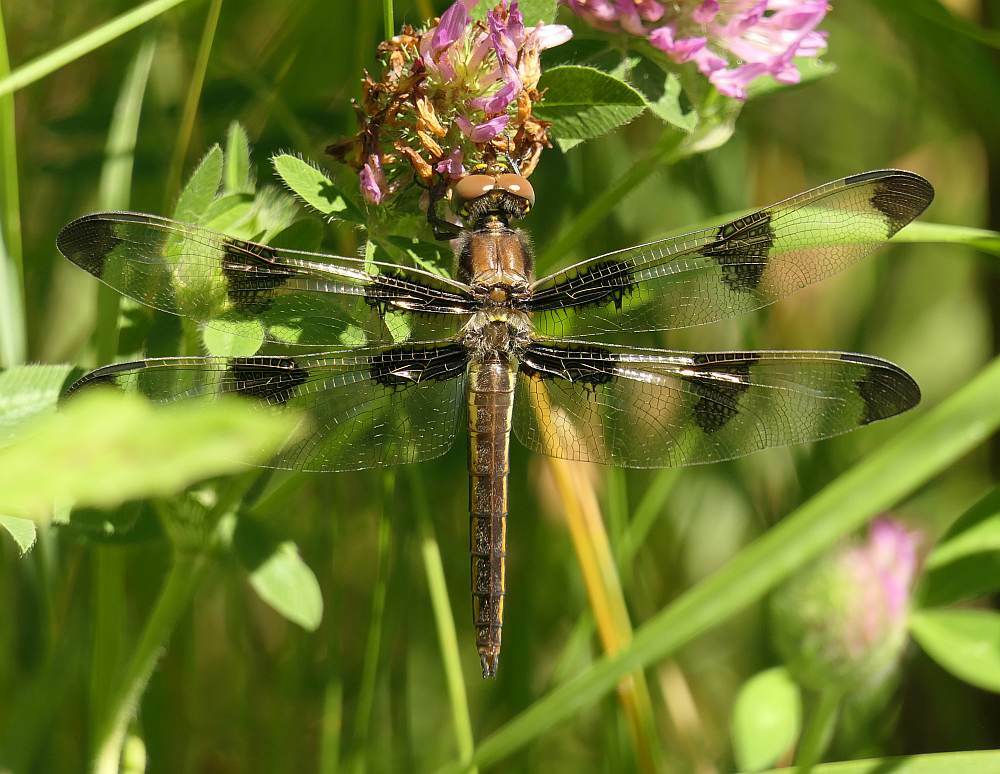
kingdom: Animalia
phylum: Arthropoda
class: Insecta
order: Odonata
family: Libellulidae
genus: Libellula
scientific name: Libellula pulchella
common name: Twelve-spotted skimmer
